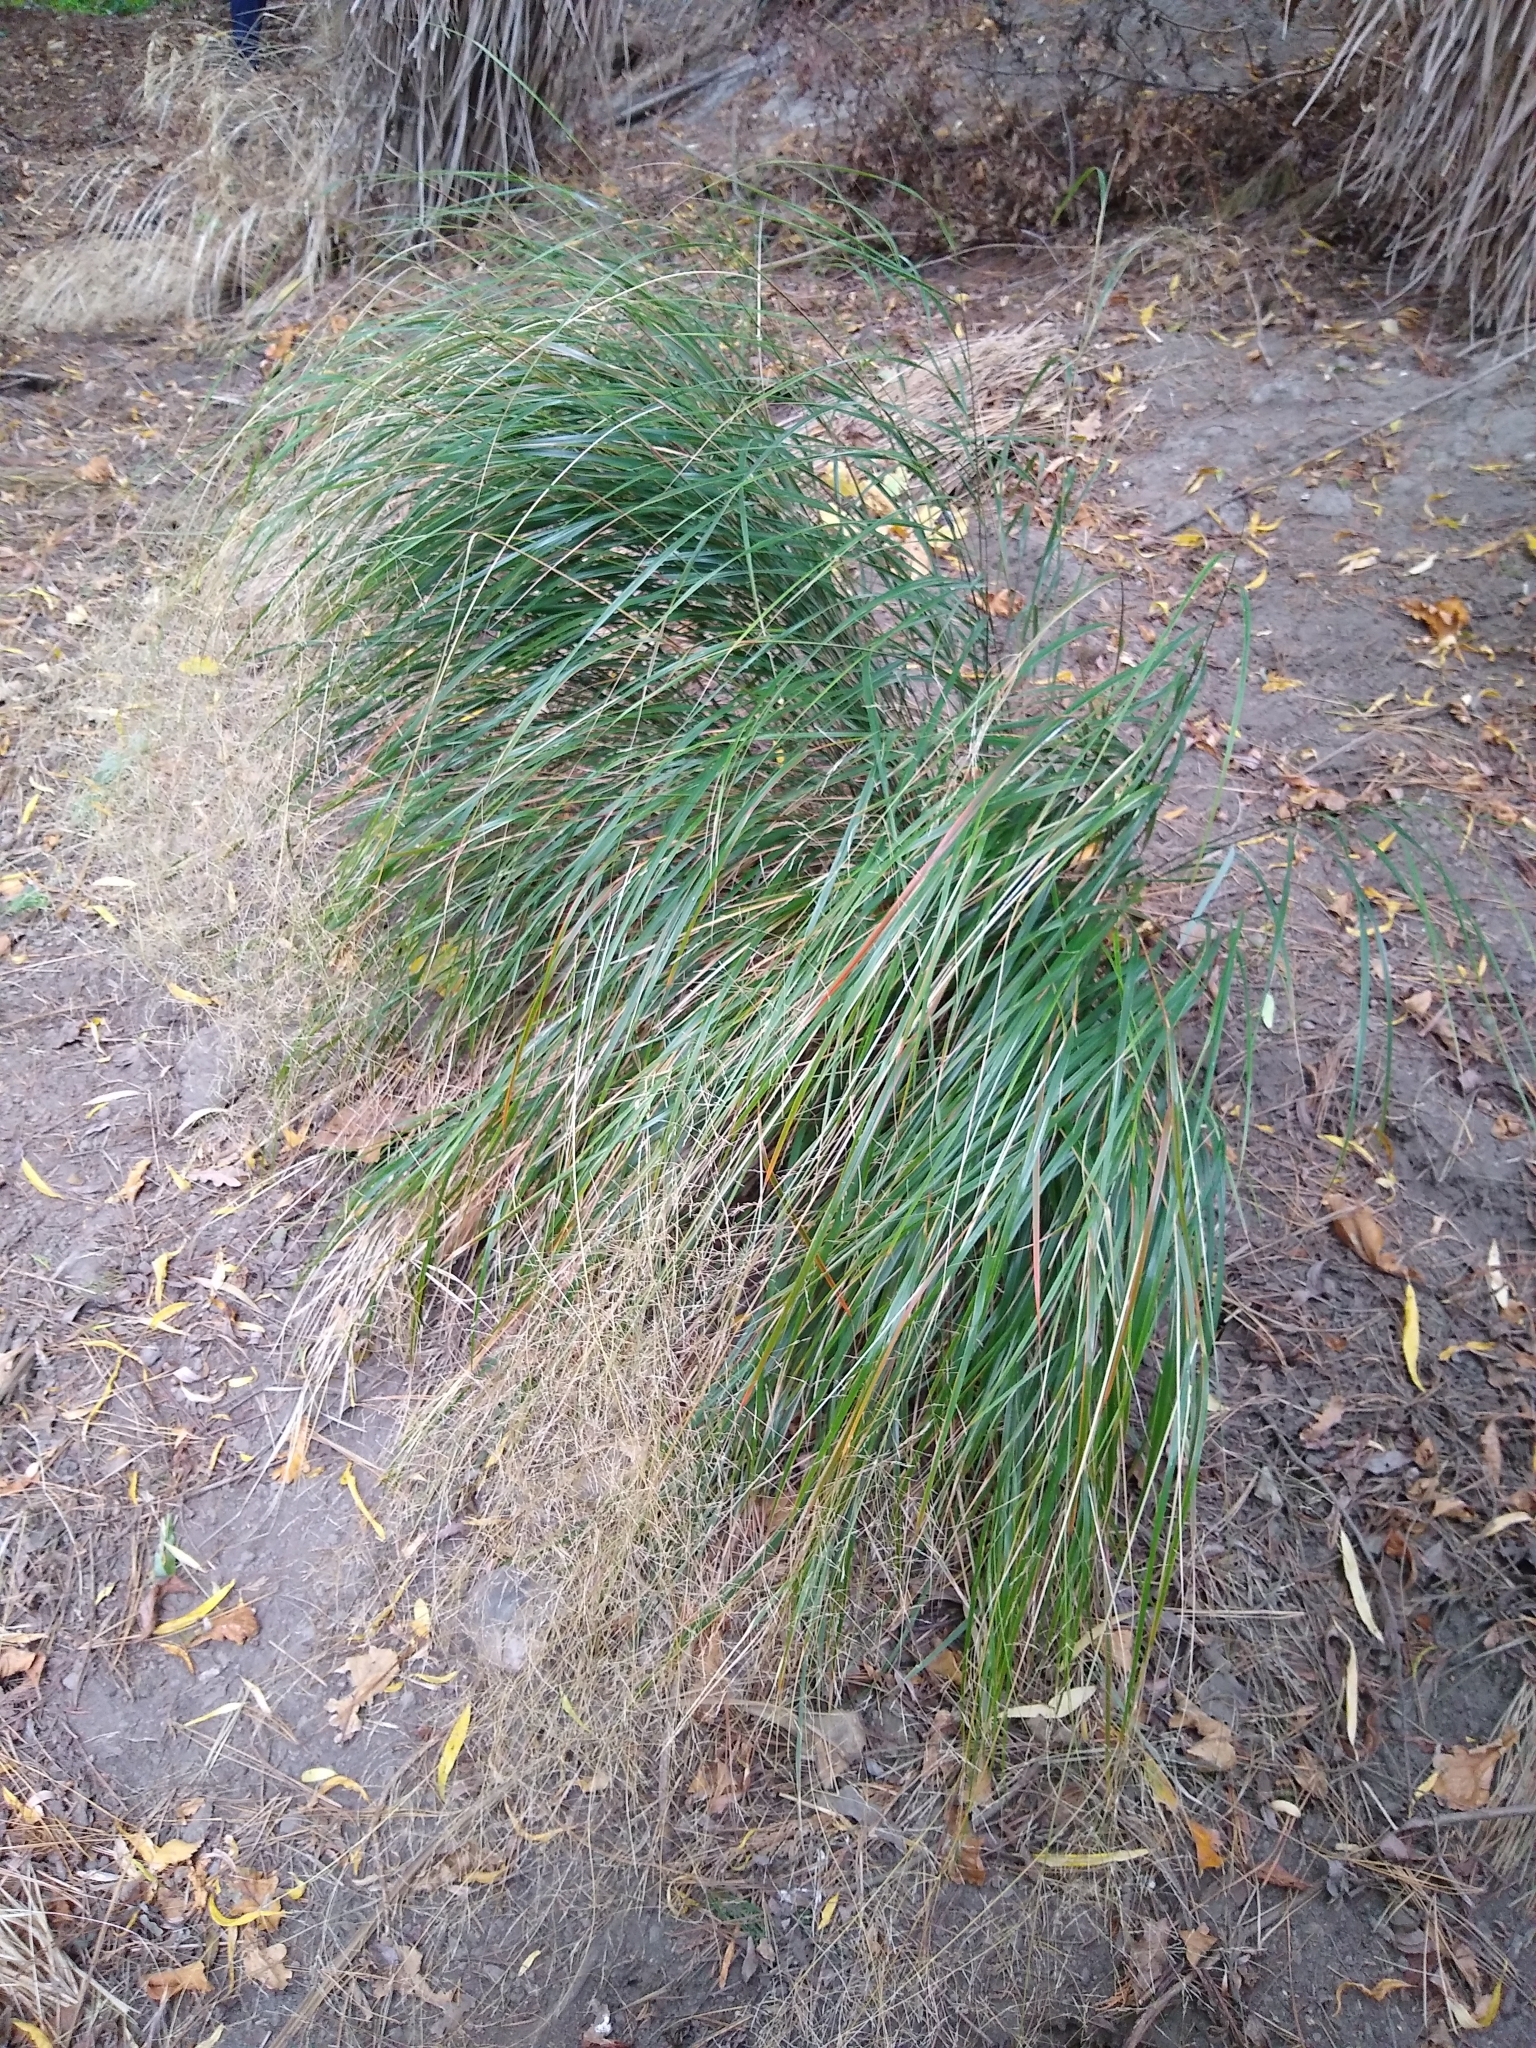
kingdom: Plantae
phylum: Tracheophyta
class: Liliopsida
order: Poales
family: Poaceae
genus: Anemanthele
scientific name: Anemanthele lessoniana
